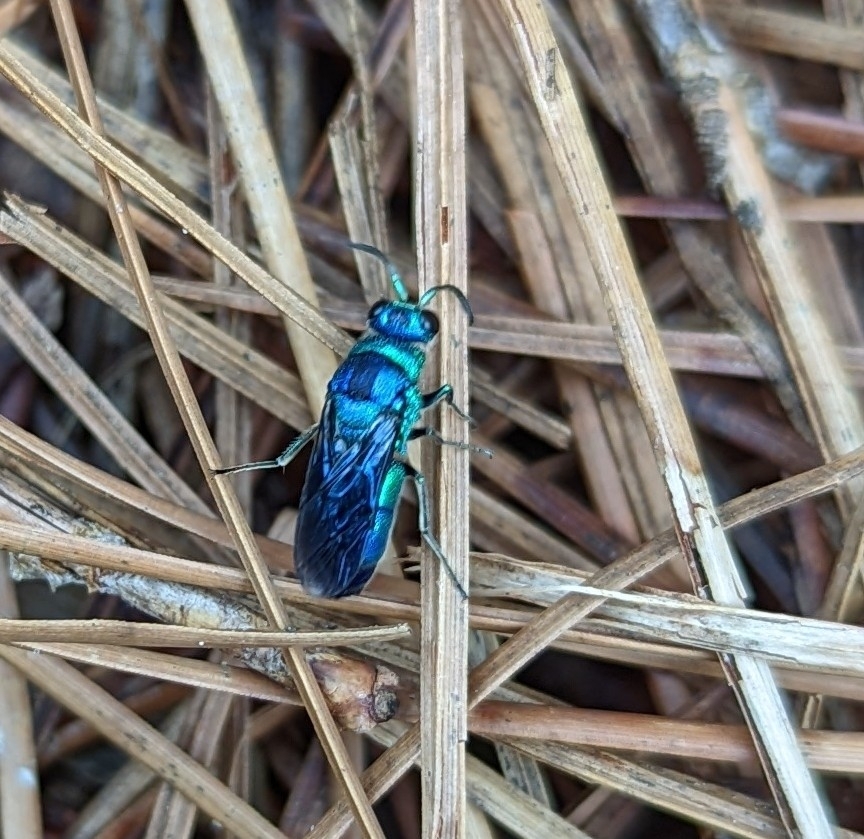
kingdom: Animalia
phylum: Arthropoda
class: Insecta
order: Hymenoptera
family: Chrysididae
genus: Chrysis
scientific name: Chrysis angolensis
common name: Cuckoo wasp
